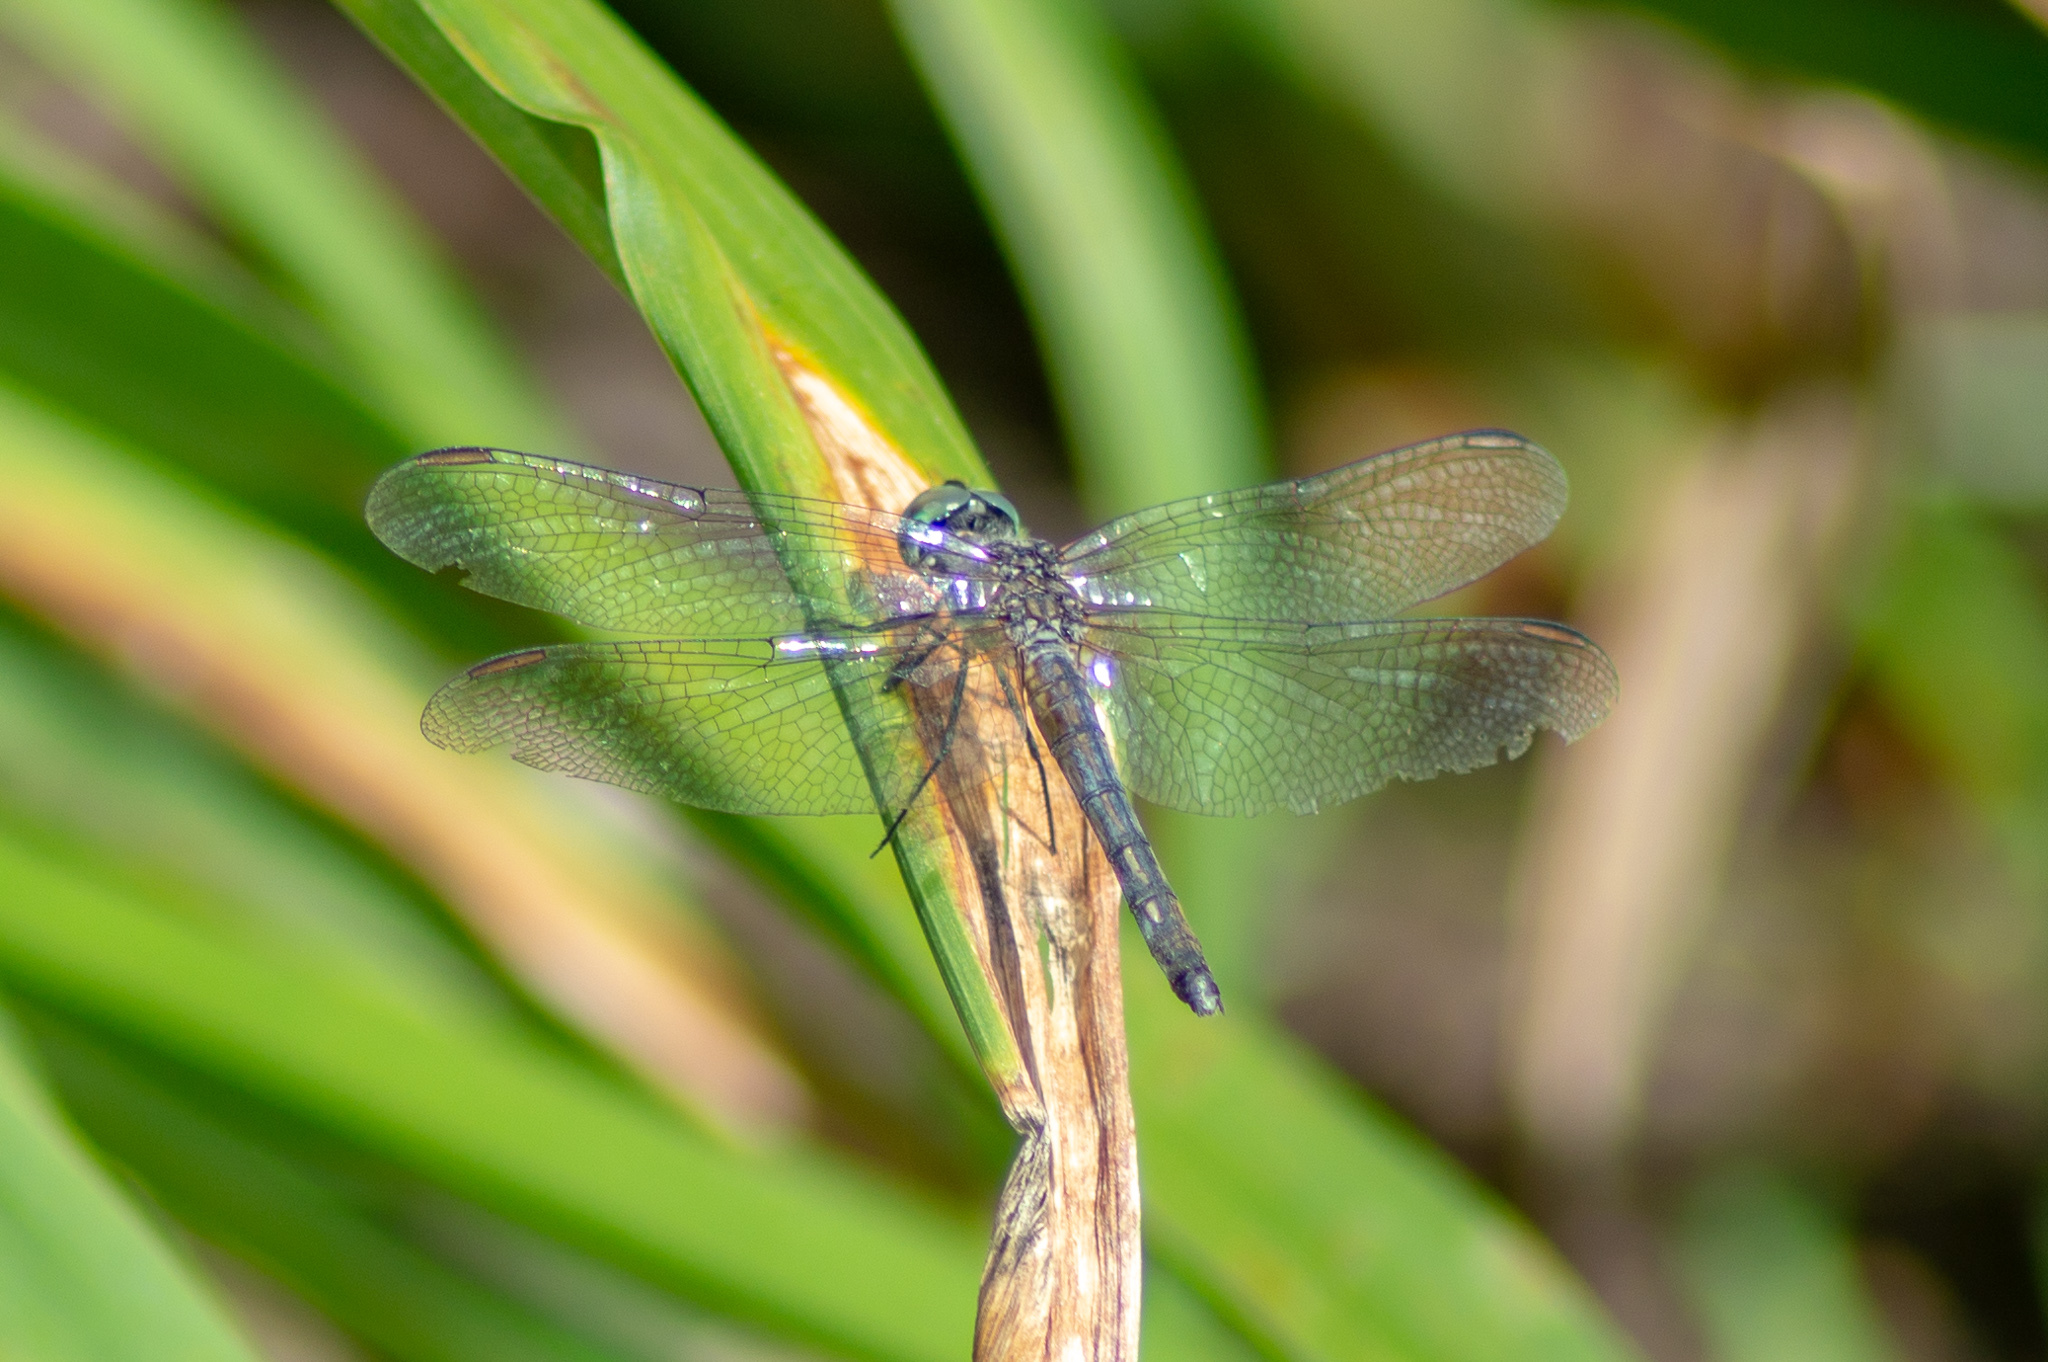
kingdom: Animalia
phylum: Arthropoda
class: Insecta
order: Odonata
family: Libellulidae
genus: Pachydiplax
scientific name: Pachydiplax longipennis
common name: Blue dasher
